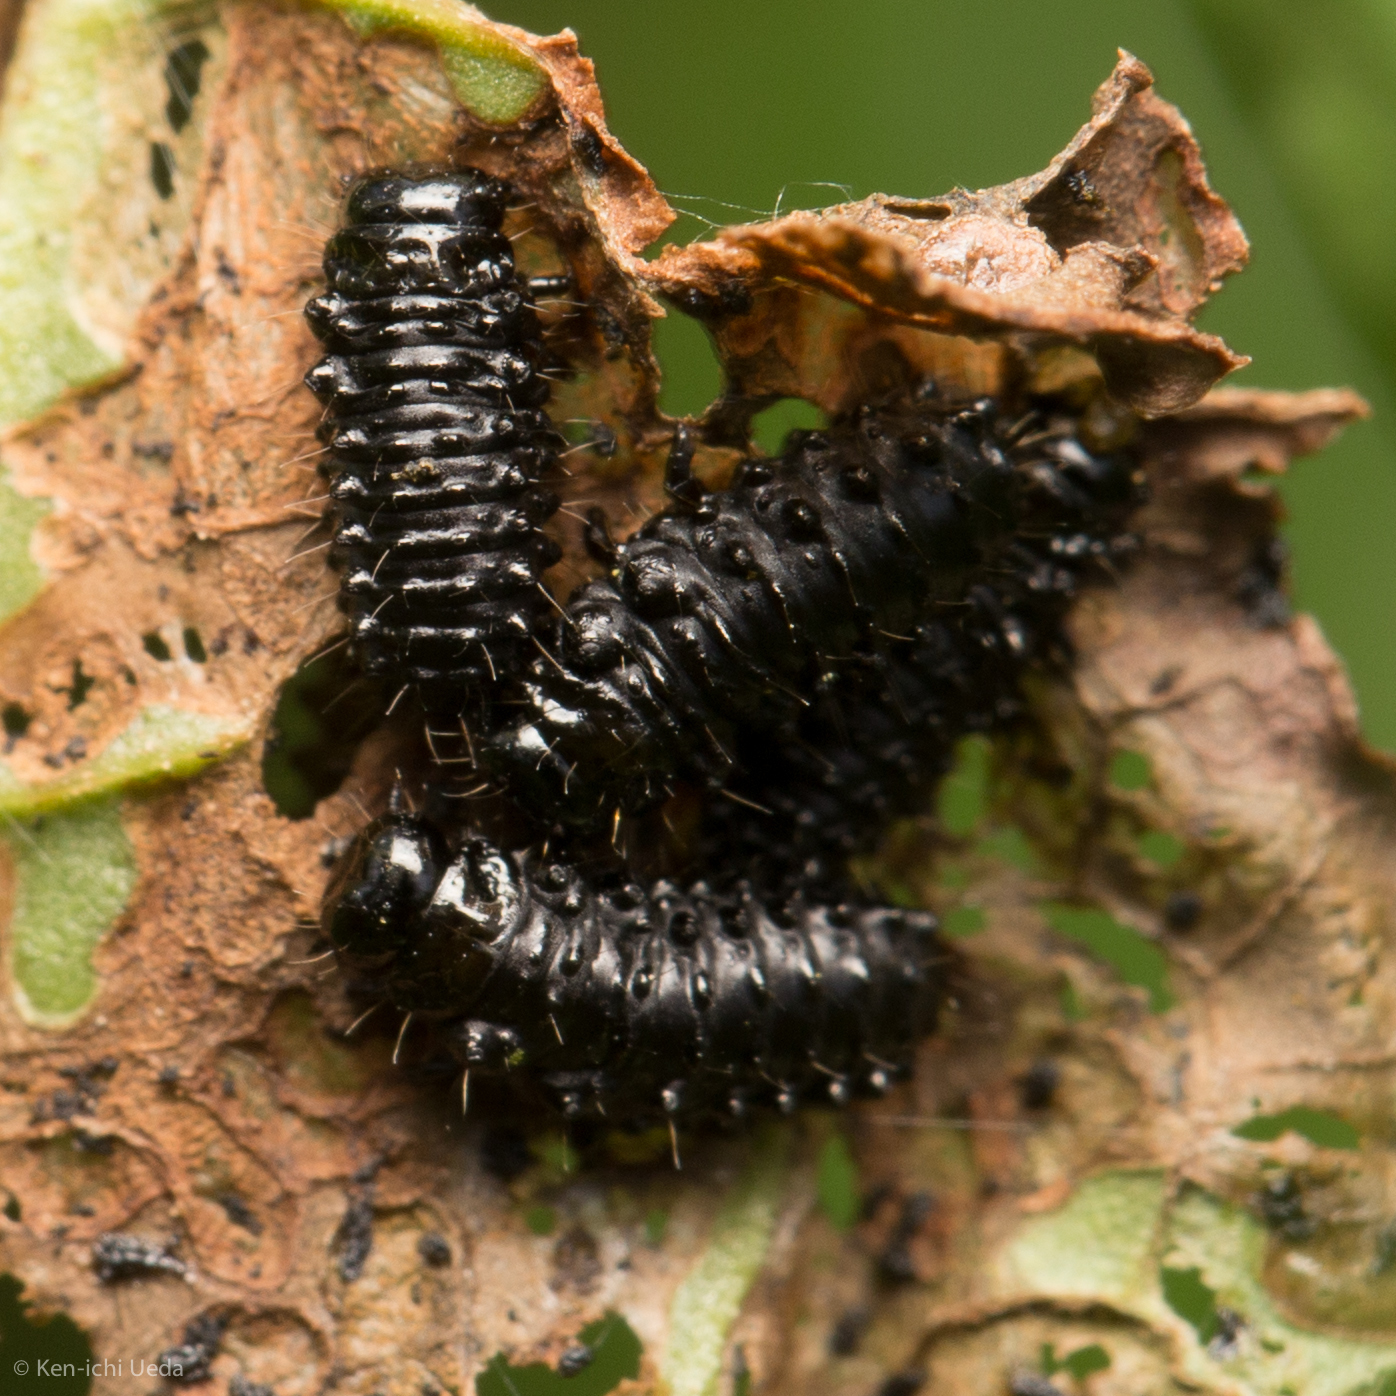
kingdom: Animalia
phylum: Arthropoda
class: Insecta
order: Coleoptera
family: Chrysomelidae
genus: Gastrophysa
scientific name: Gastrophysa cyanea
